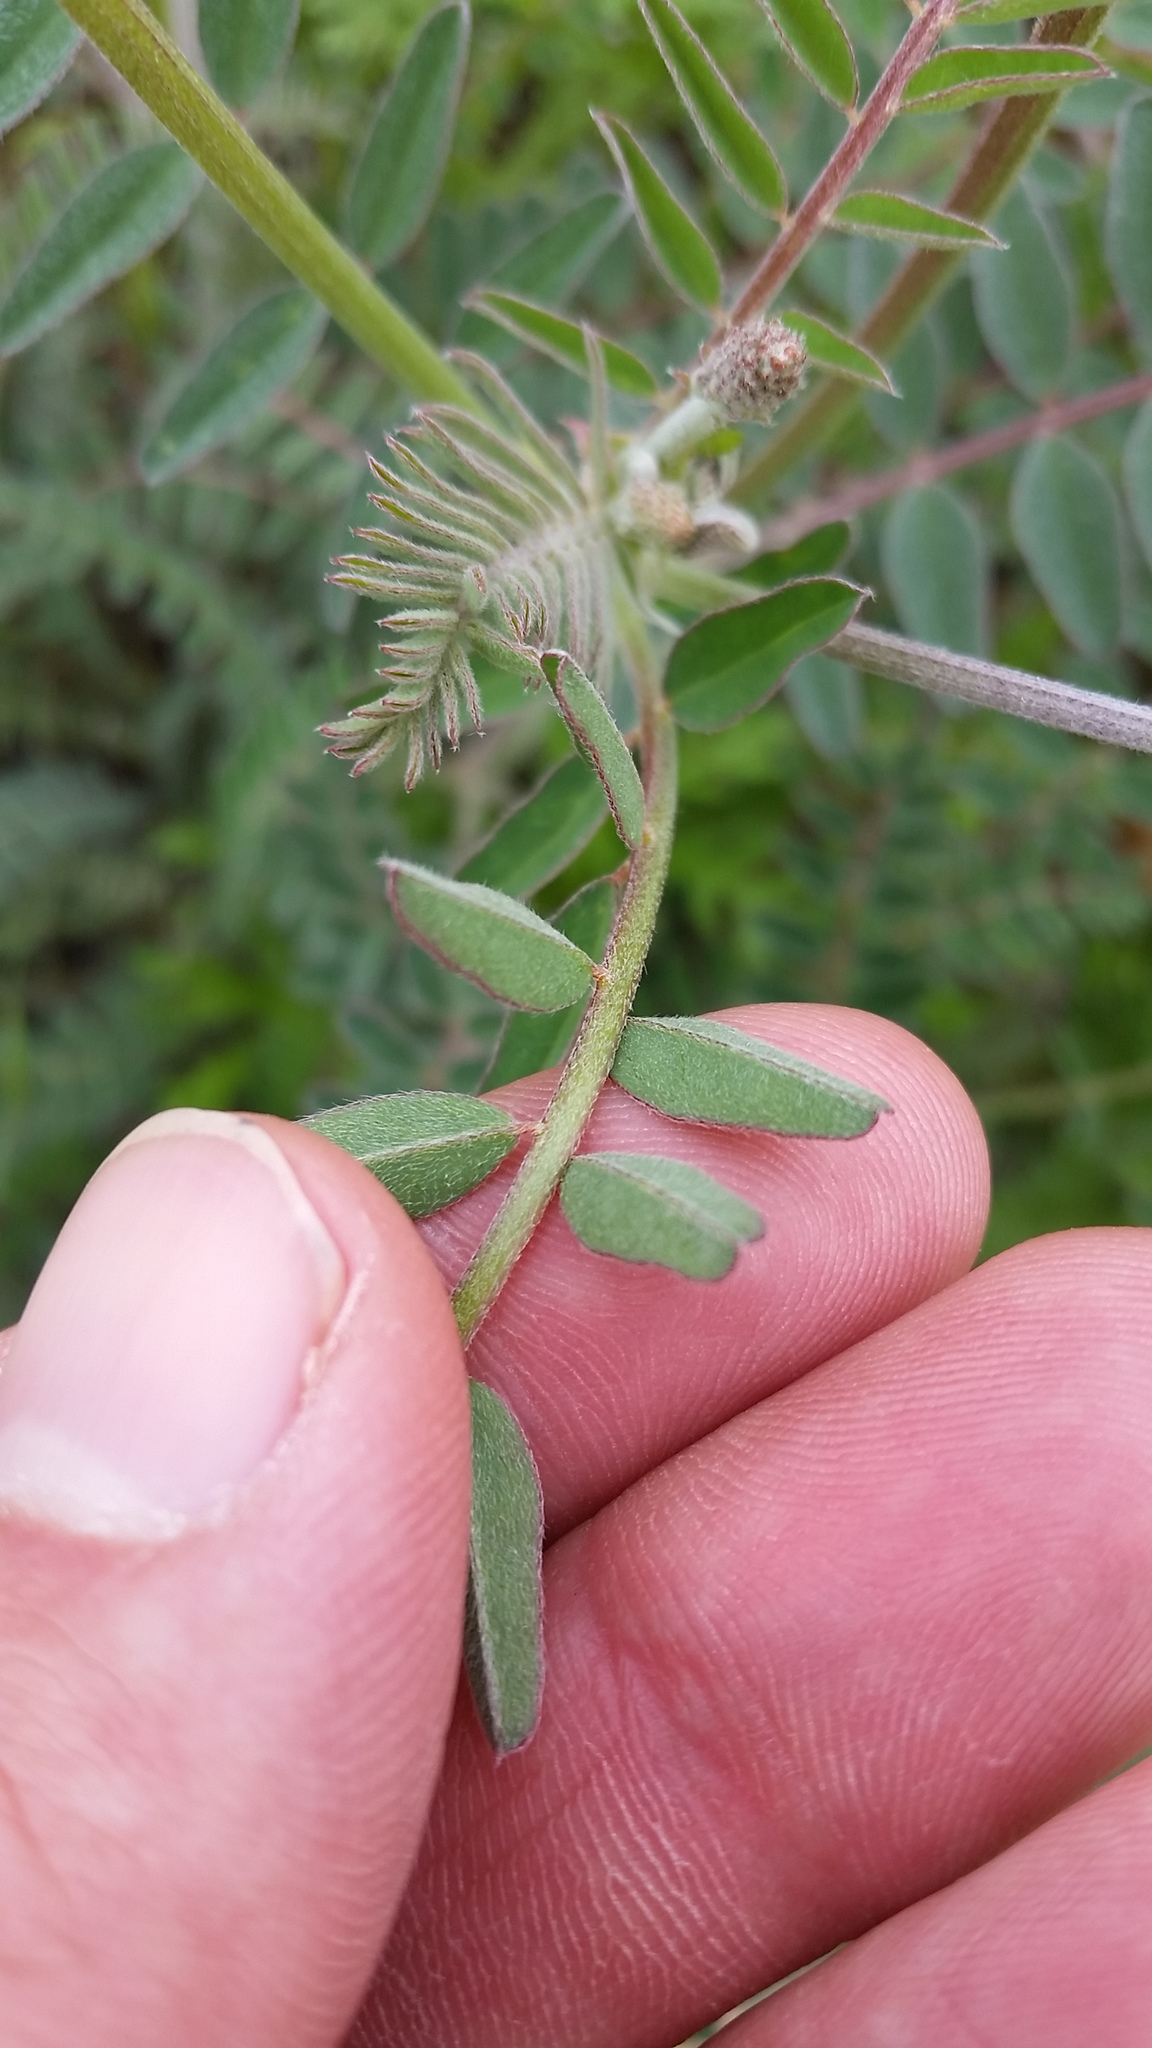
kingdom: Plantae
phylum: Tracheophyta
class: Magnoliopsida
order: Fabales
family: Fabaceae
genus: Astragalus
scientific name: Astragalus trichopodus
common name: Santa barbara milk-vetch
